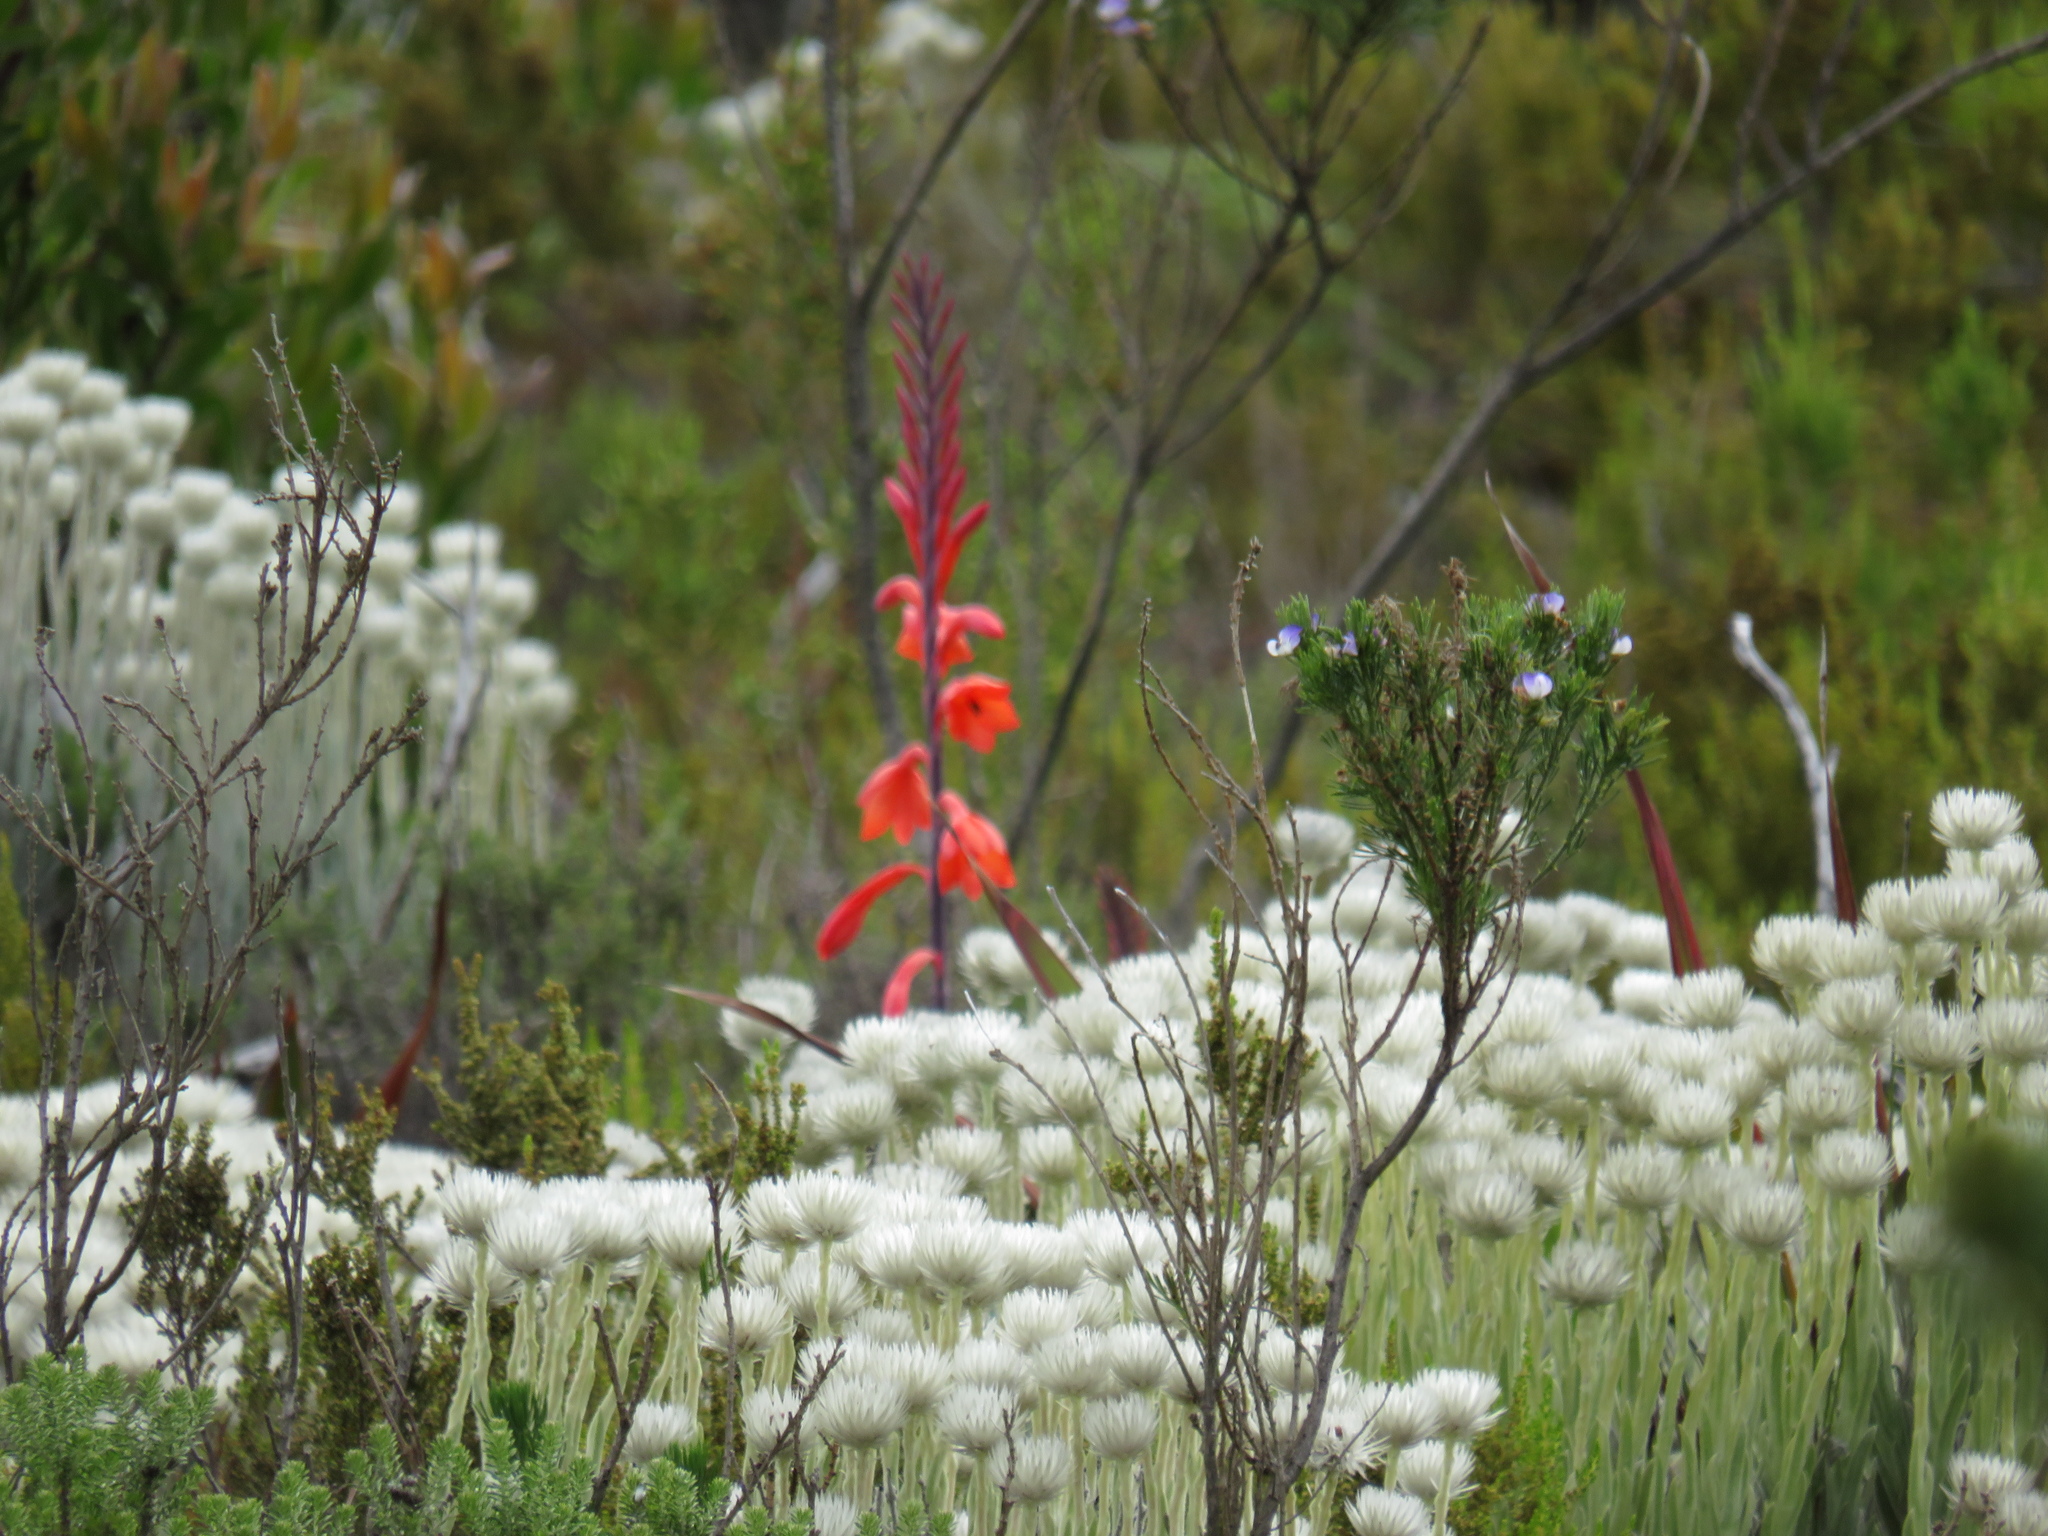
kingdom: Plantae
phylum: Tracheophyta
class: Liliopsida
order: Asparagales
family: Iridaceae
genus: Watsonia
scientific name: Watsonia tabularis
